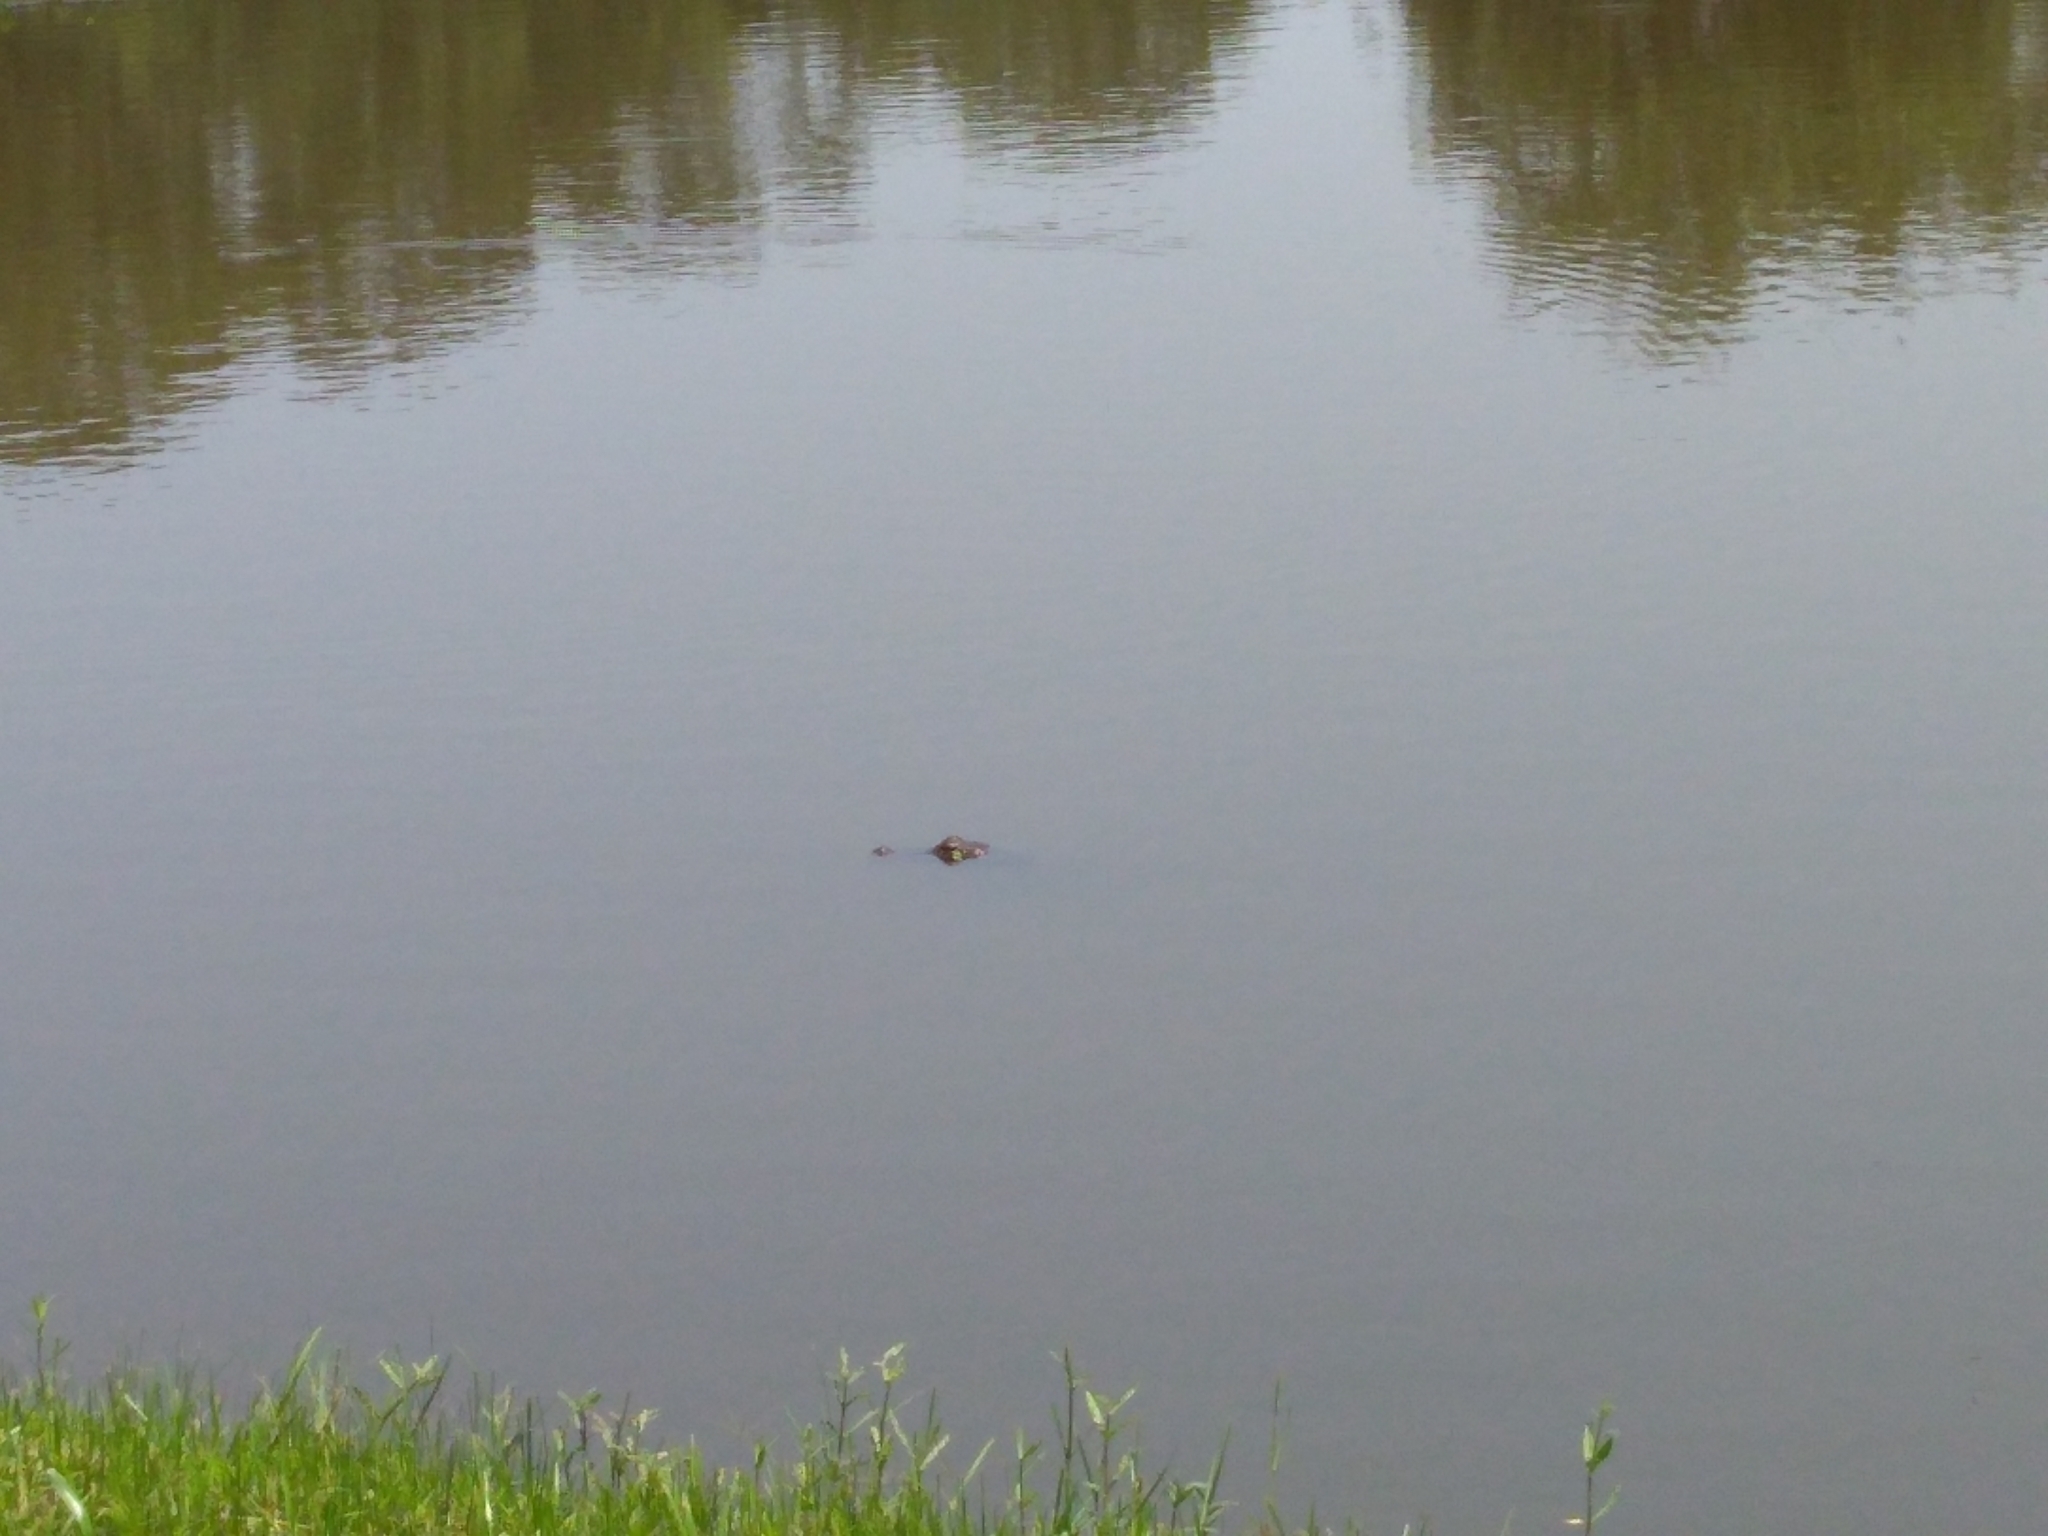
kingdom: Animalia
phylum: Chordata
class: Crocodylia
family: Alligatoridae
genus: Alligator
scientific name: Alligator mississippiensis
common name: American alligator
